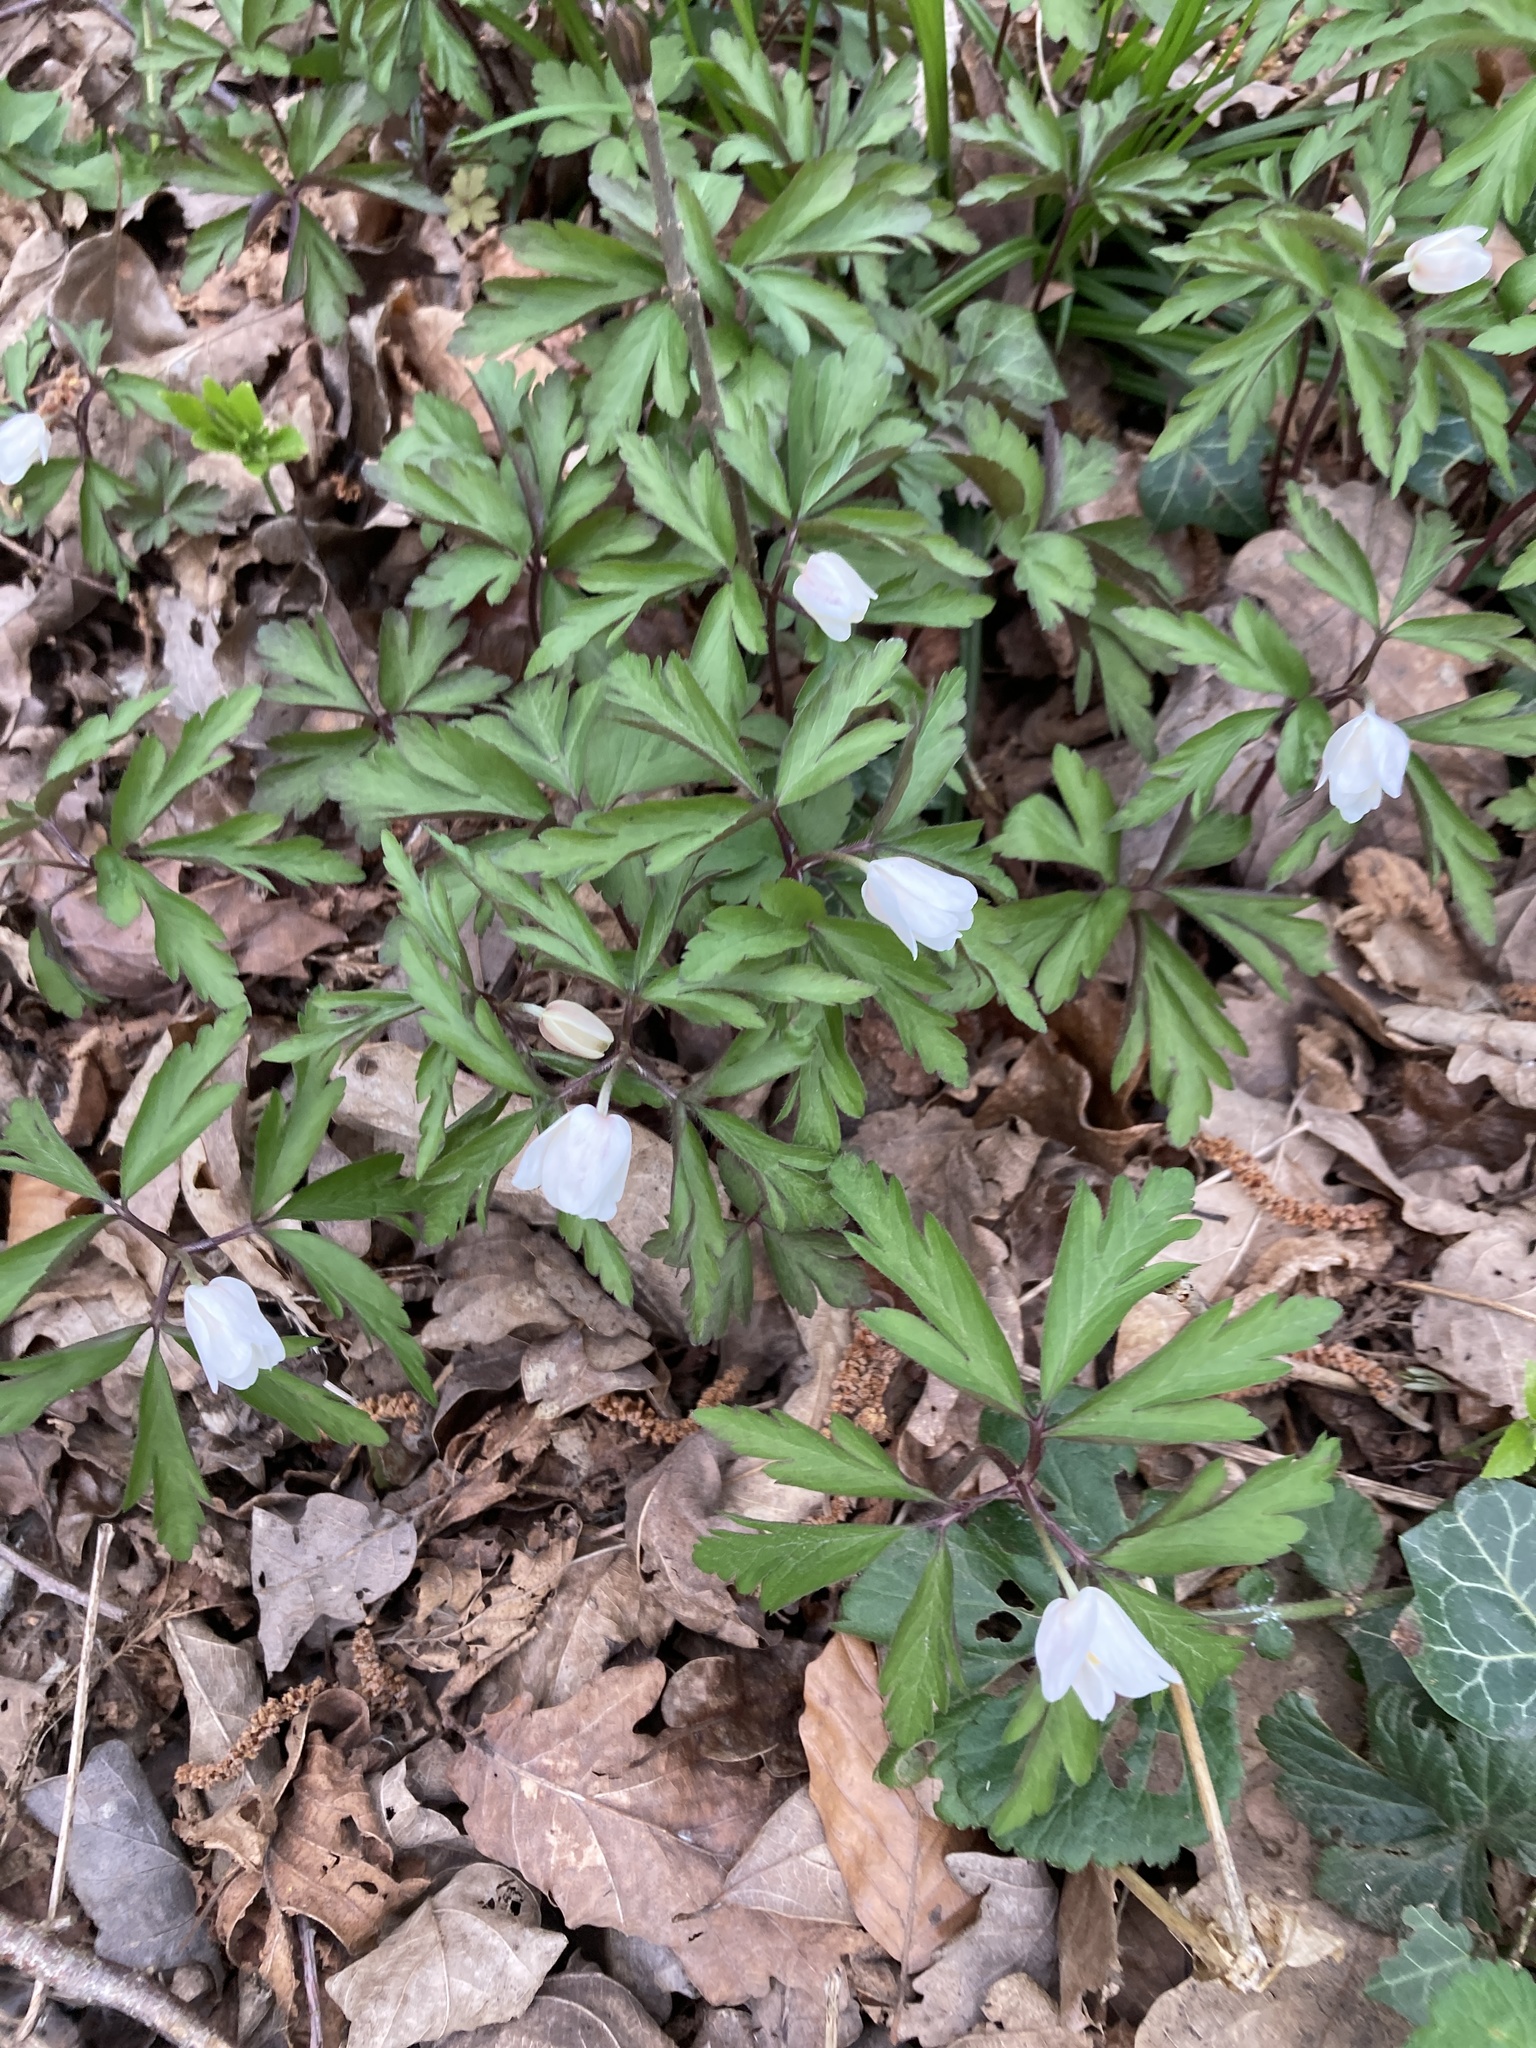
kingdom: Plantae
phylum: Tracheophyta
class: Magnoliopsida
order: Ranunculales
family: Ranunculaceae
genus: Anemone
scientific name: Anemone nemorosa
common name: Wood anemone
